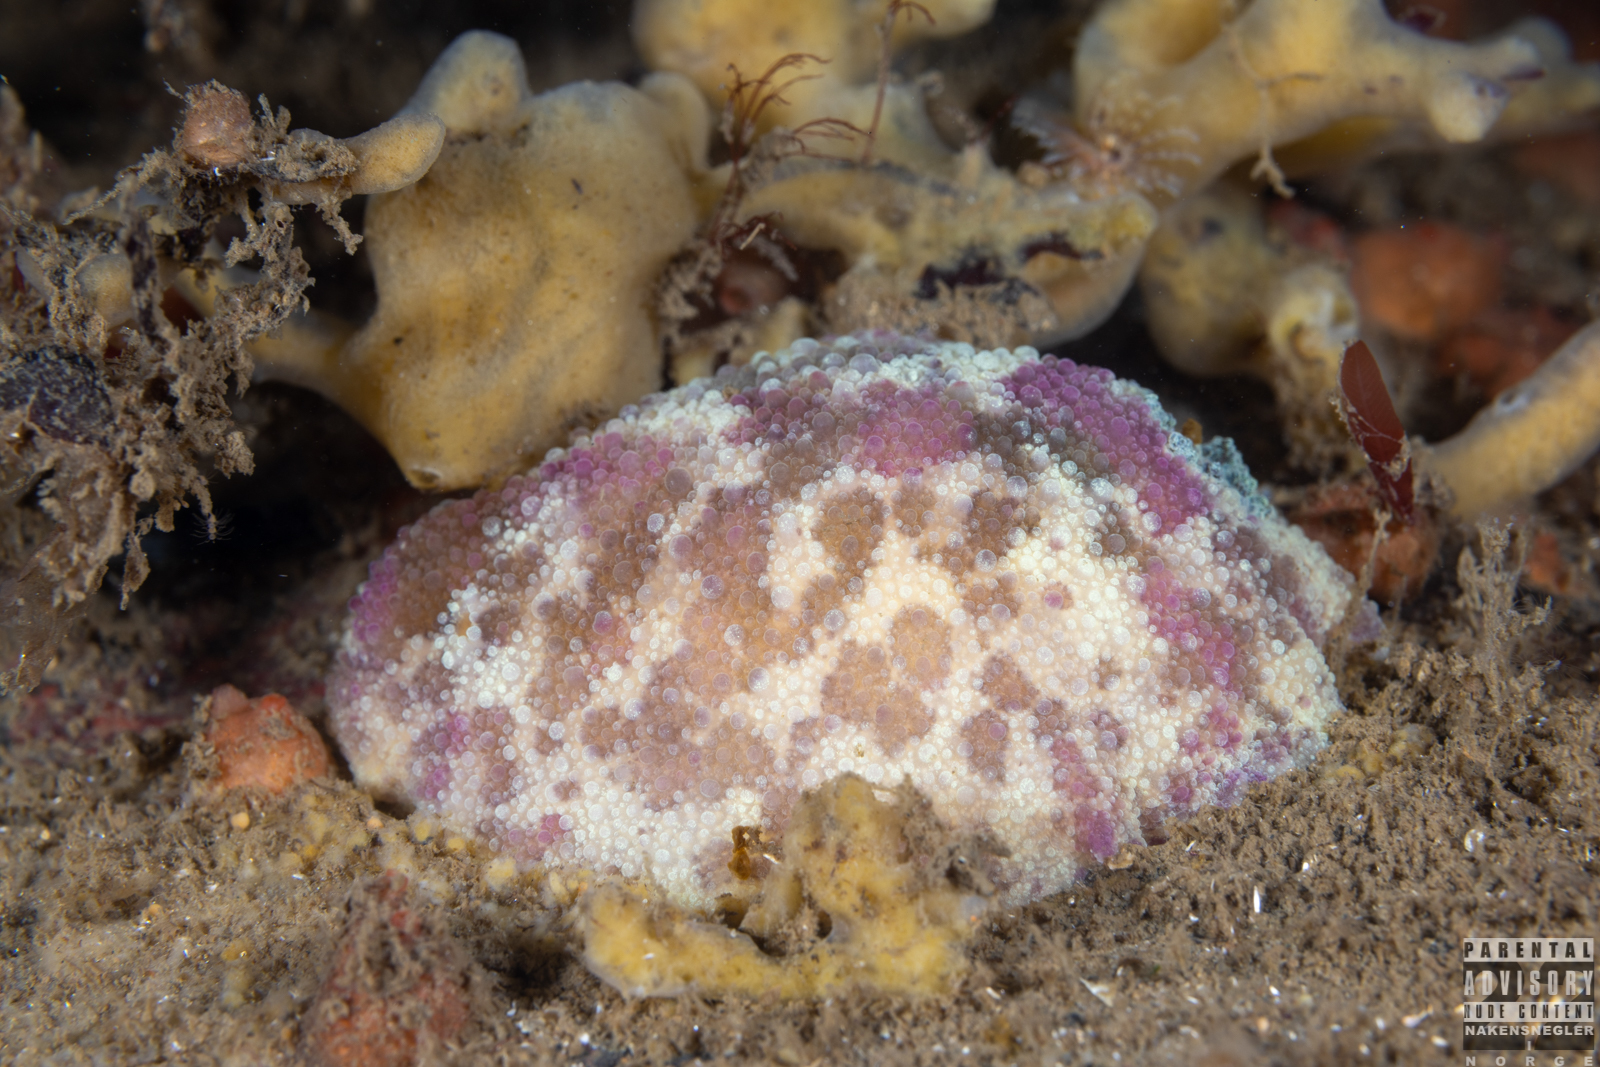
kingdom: Animalia
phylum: Mollusca
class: Gastropoda
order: Nudibranchia
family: Dorididae
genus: Doris
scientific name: Doris pseudoargus
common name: Sea lemon
